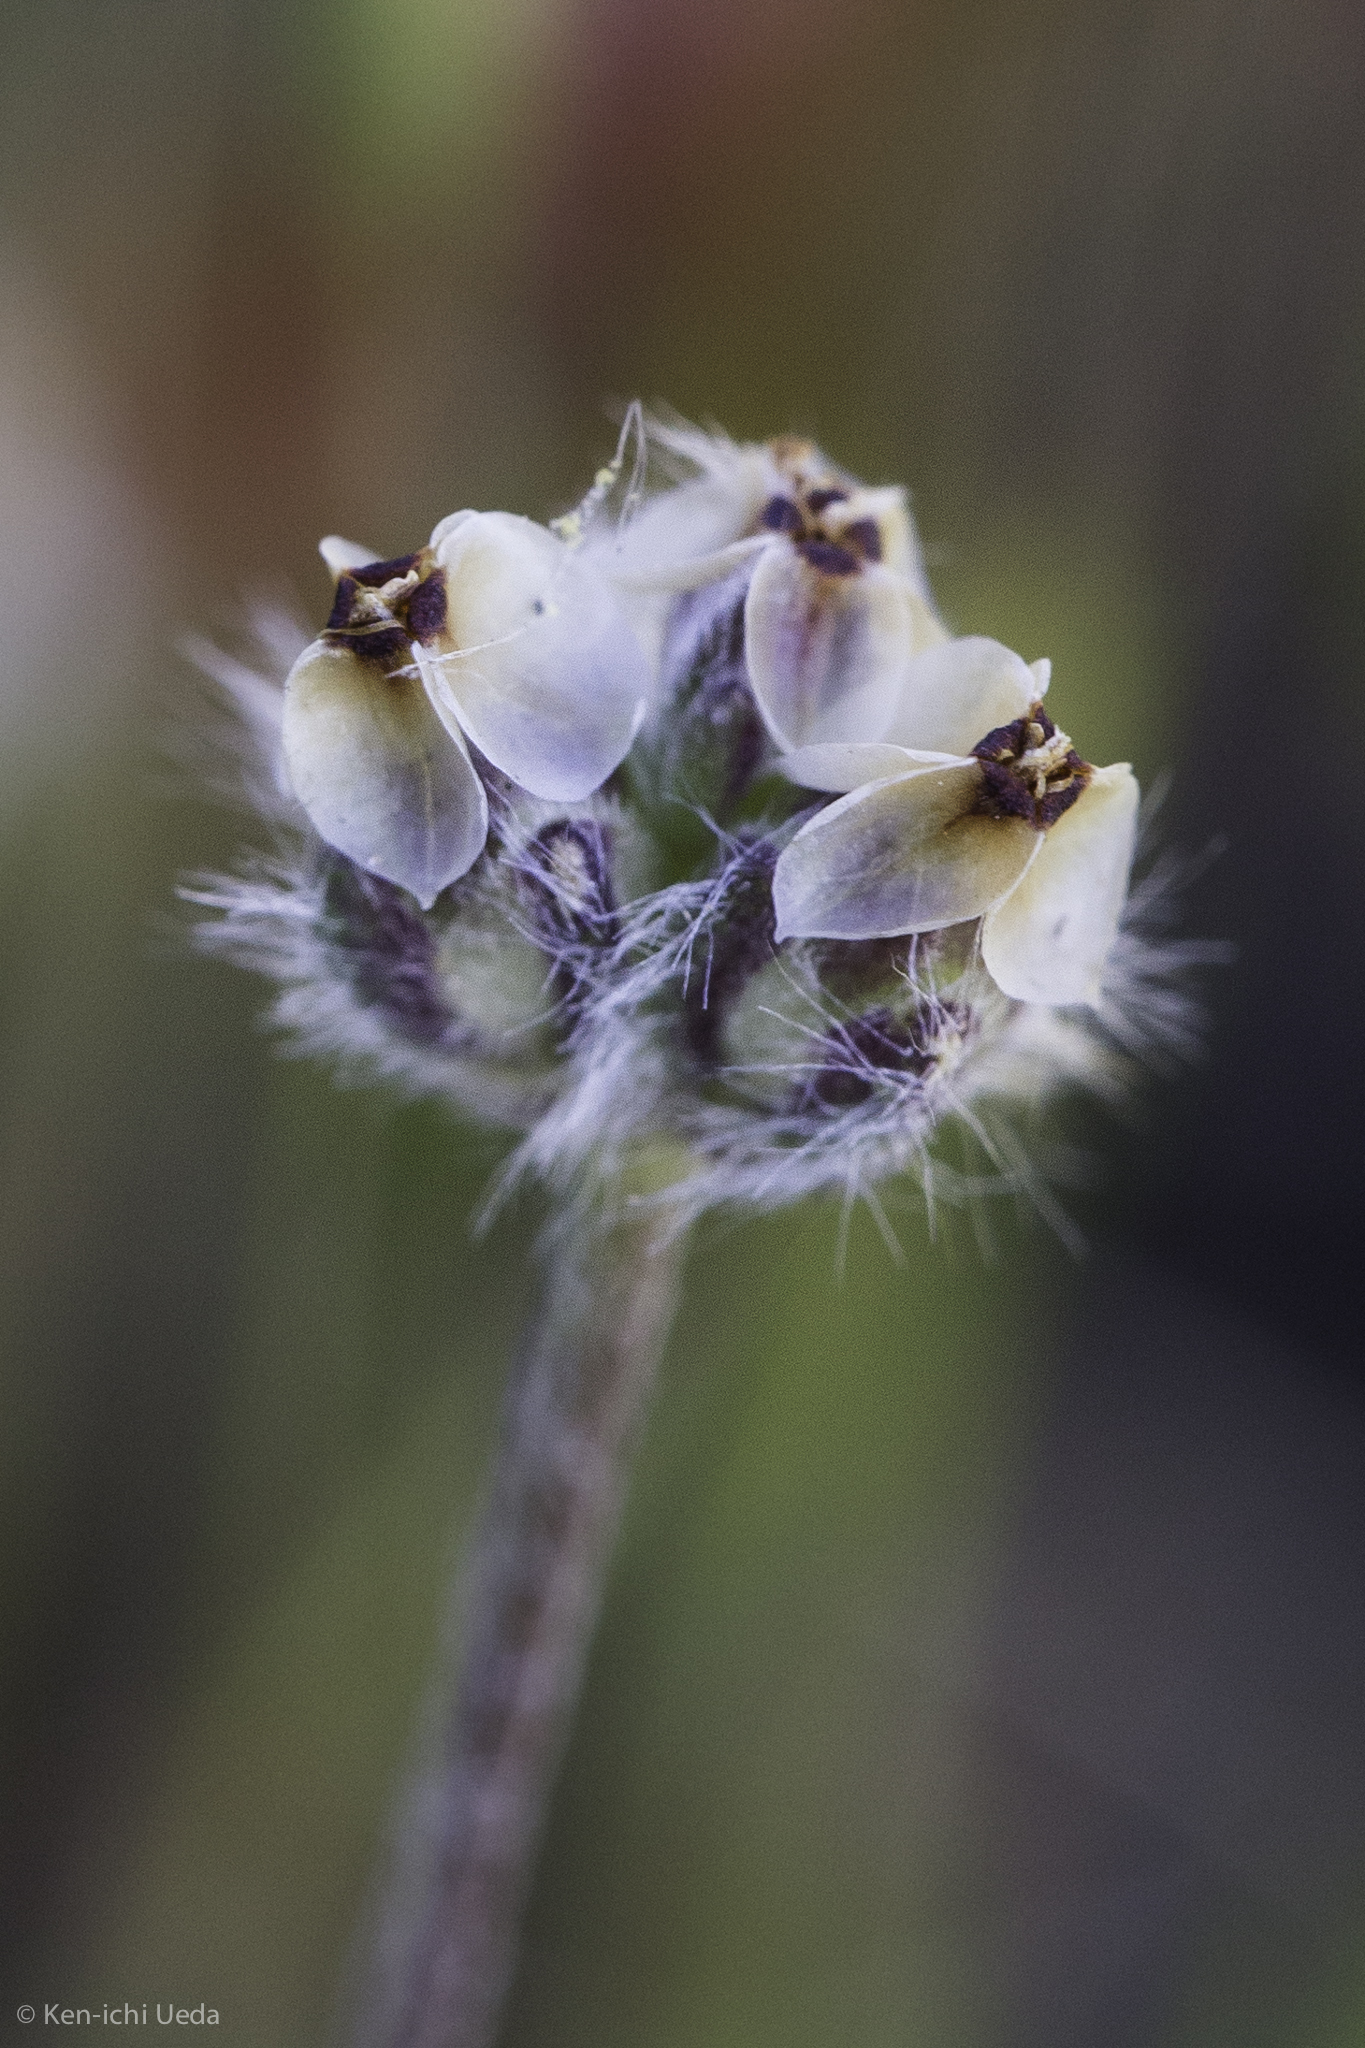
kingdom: Plantae
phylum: Tracheophyta
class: Magnoliopsida
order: Lamiales
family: Plantaginaceae
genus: Plantago
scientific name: Plantago erecta
